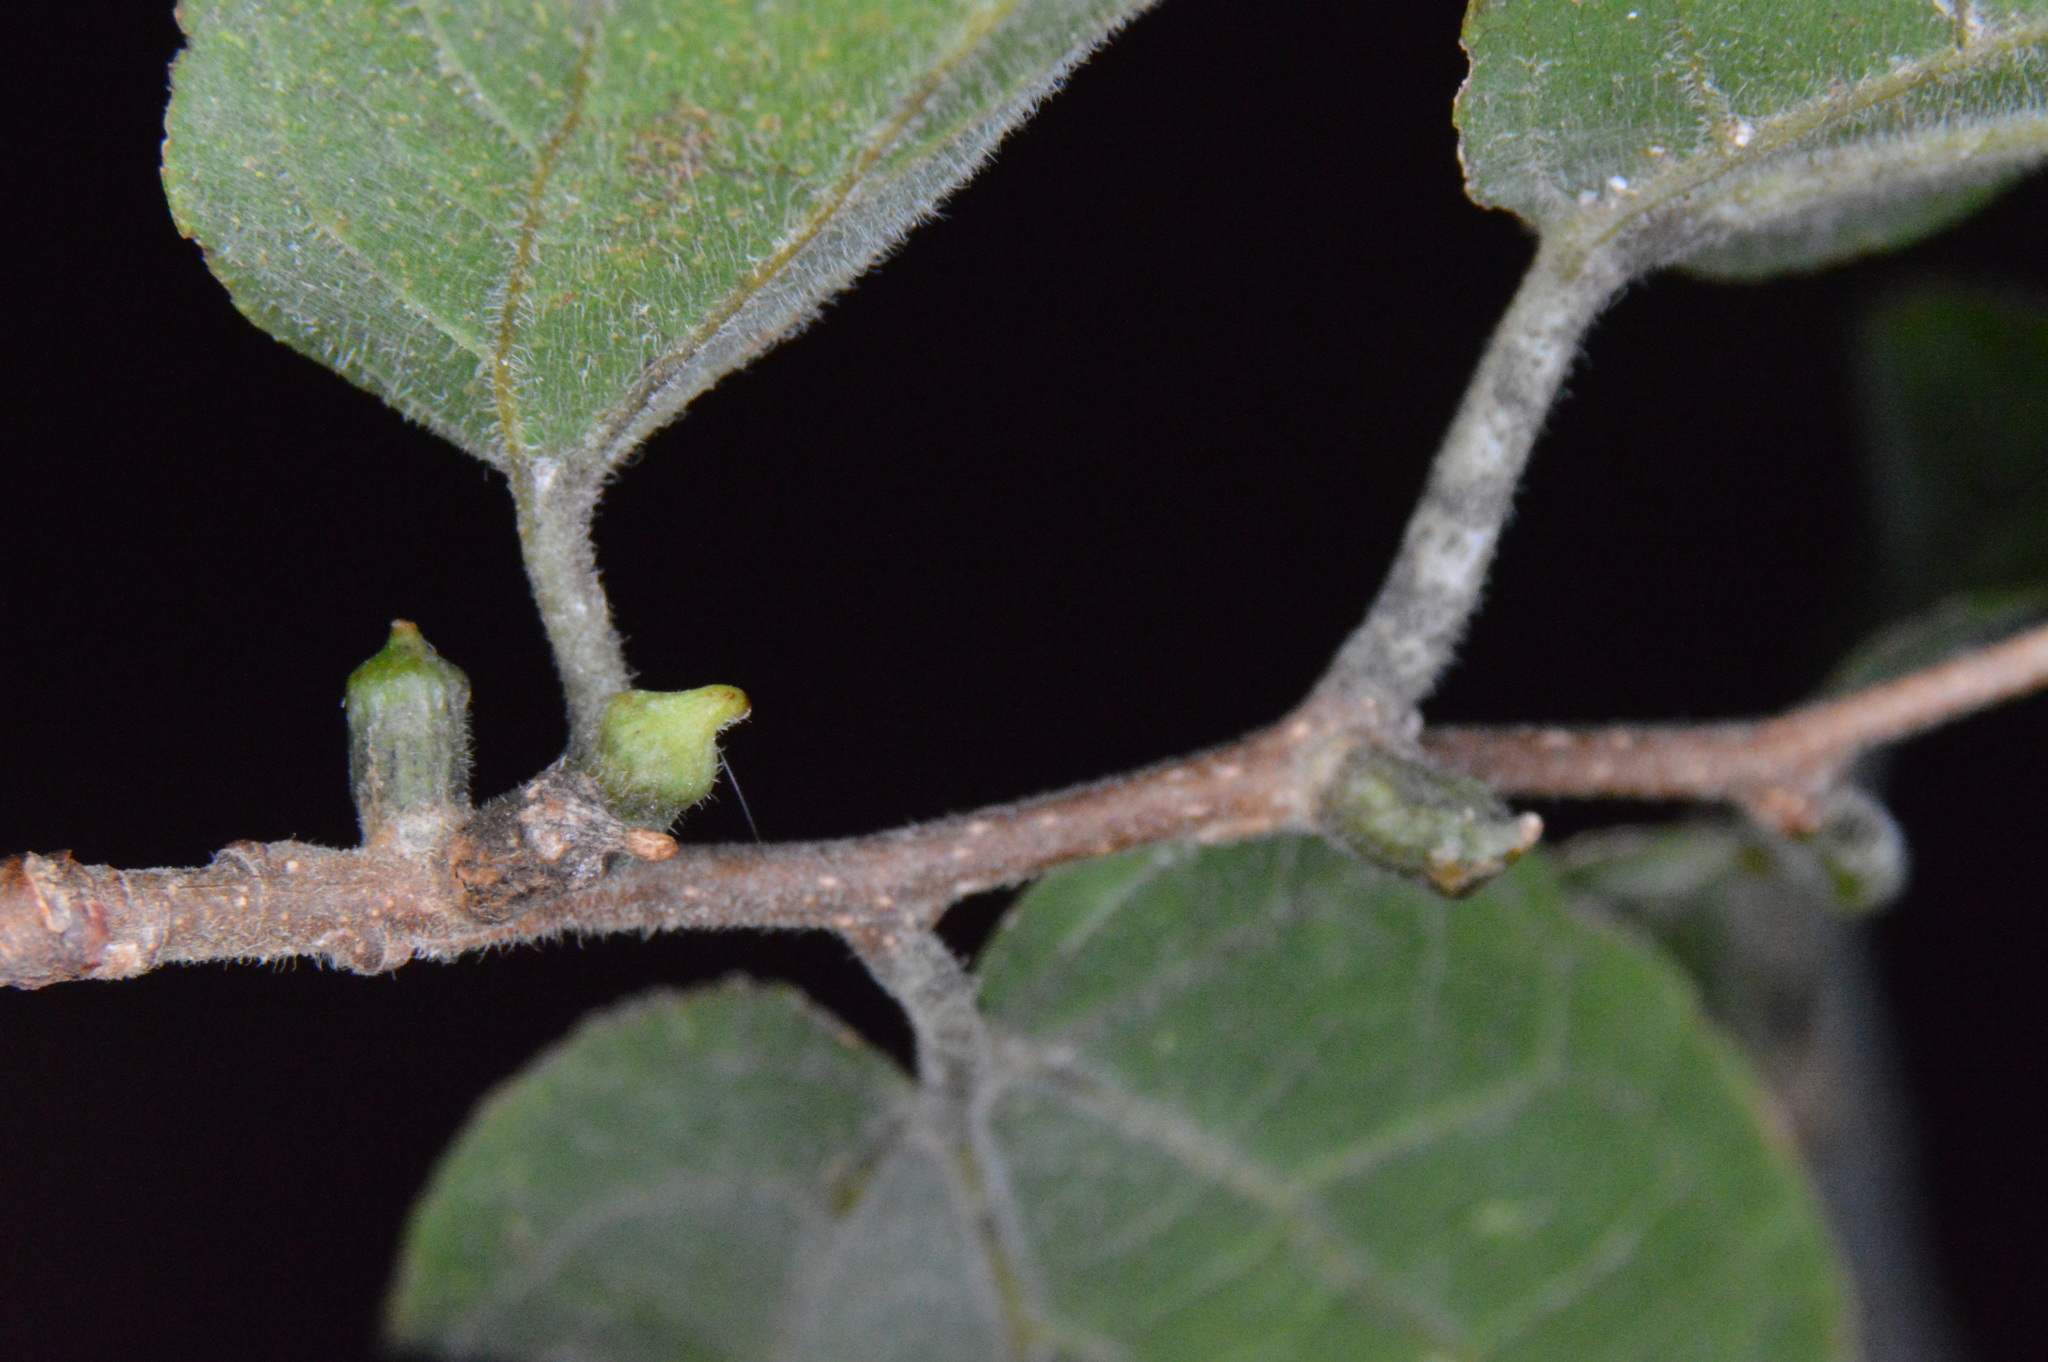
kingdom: Animalia
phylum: Arthropoda
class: Insecta
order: Diptera
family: Cecidomyiidae
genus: Celticecis
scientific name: Celticecis ramicola
